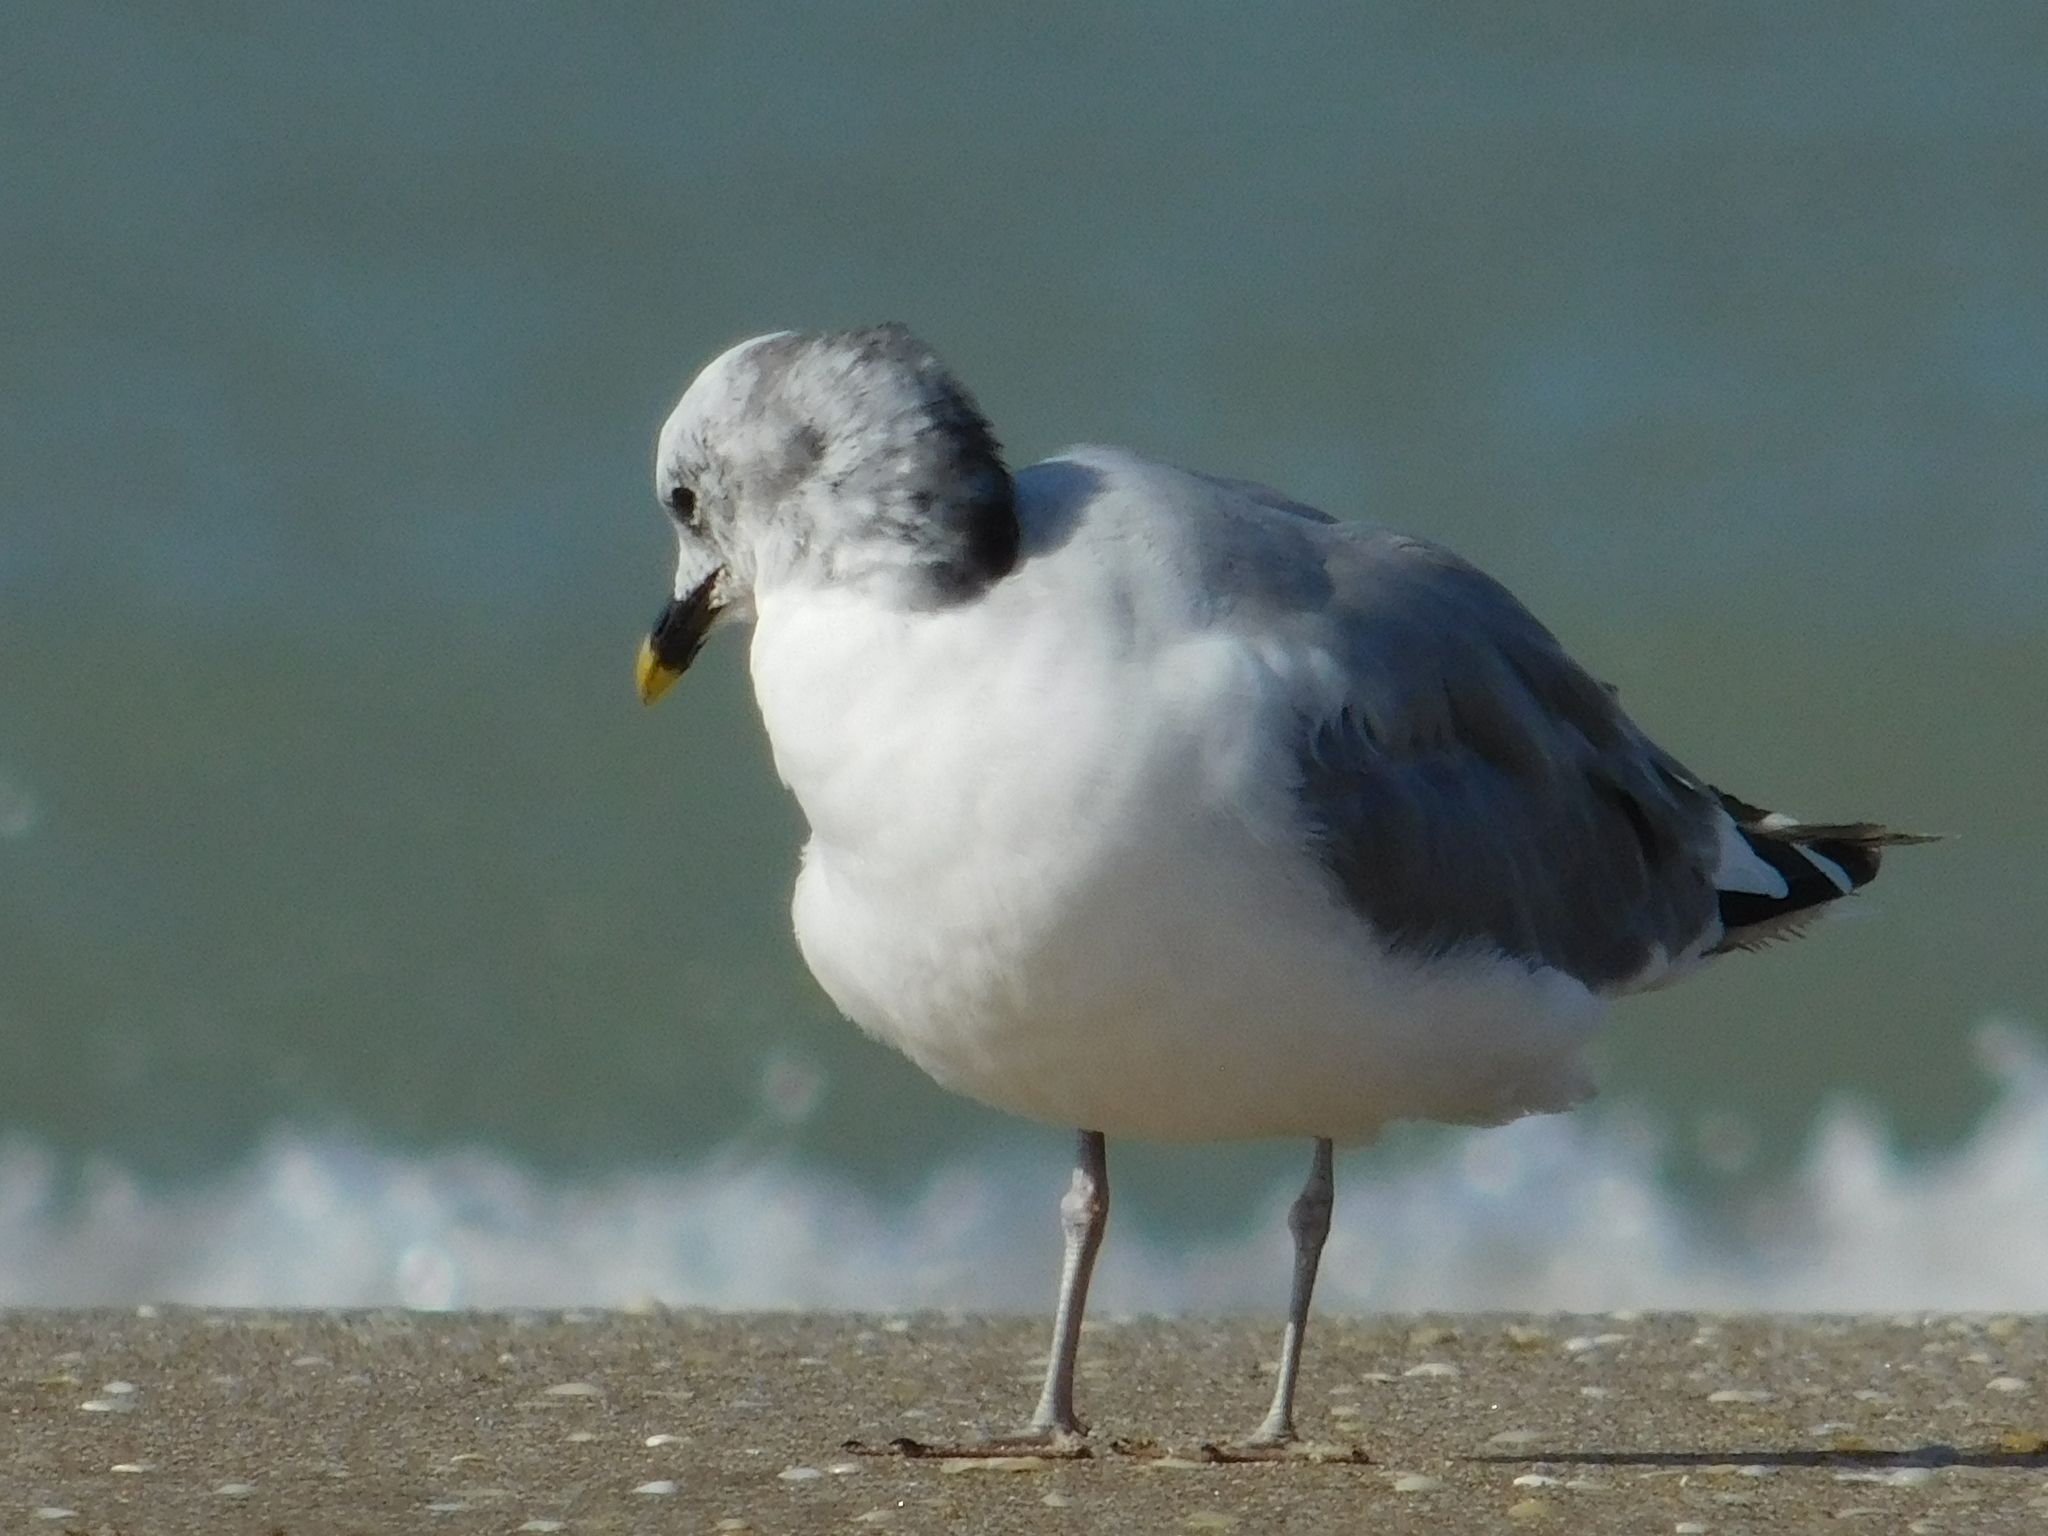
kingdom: Animalia
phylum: Chordata
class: Aves
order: Charadriiformes
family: Laridae
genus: Xema
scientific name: Xema sabini
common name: Sabine's gull
